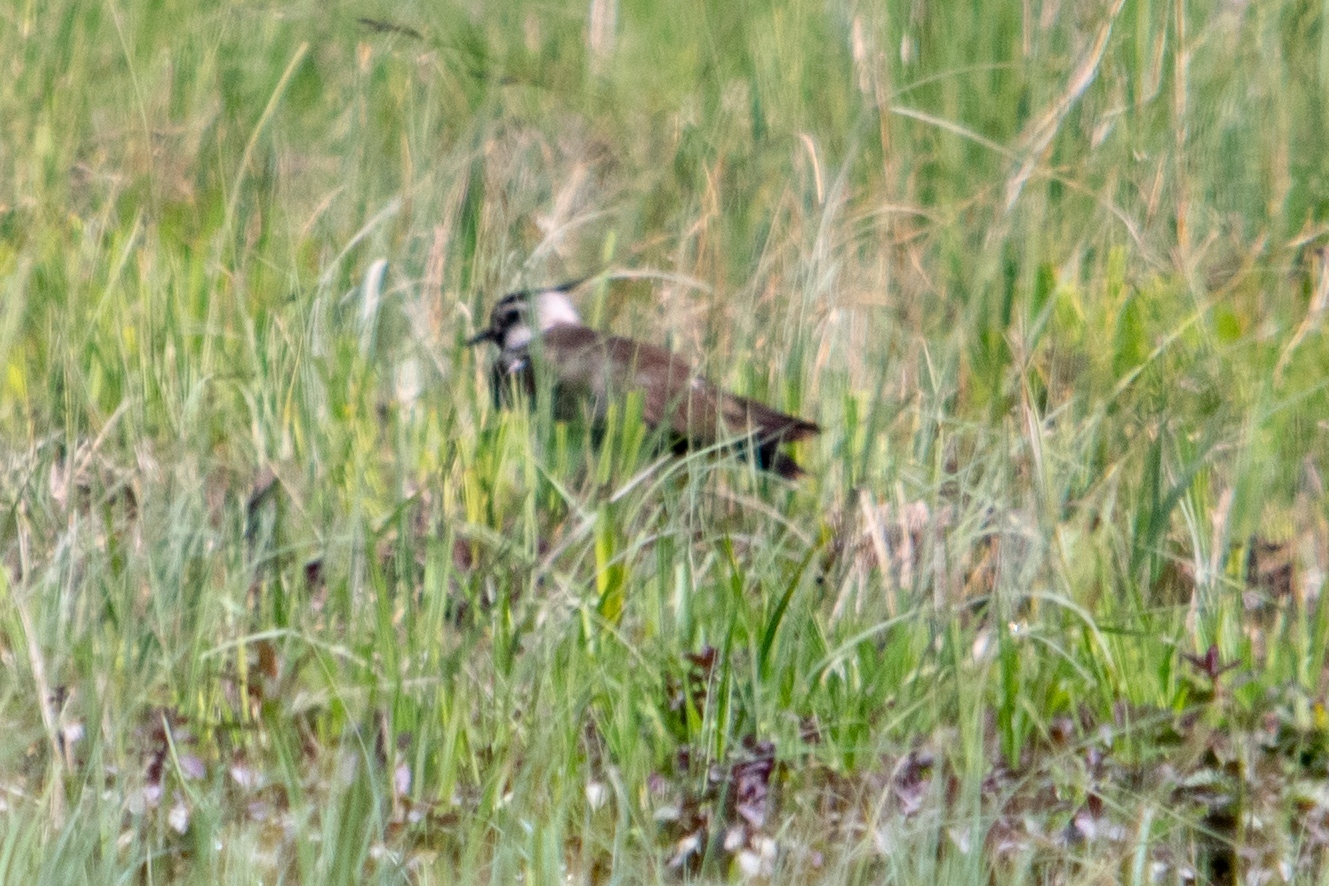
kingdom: Animalia
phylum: Chordata
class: Aves
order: Charadriiformes
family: Charadriidae
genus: Vanellus
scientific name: Vanellus vanellus
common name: Northern lapwing
